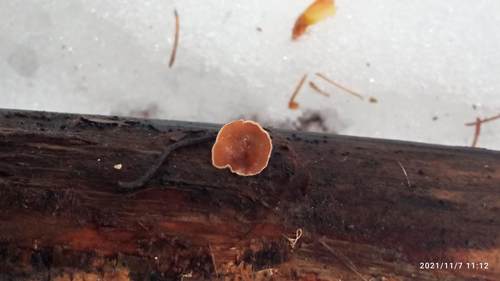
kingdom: Fungi
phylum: Basidiomycota
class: Agaricomycetes
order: Agaricales
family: Schizophyllaceae
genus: Schizophyllum
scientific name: Schizophyllum amplum
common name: Poplar bells
